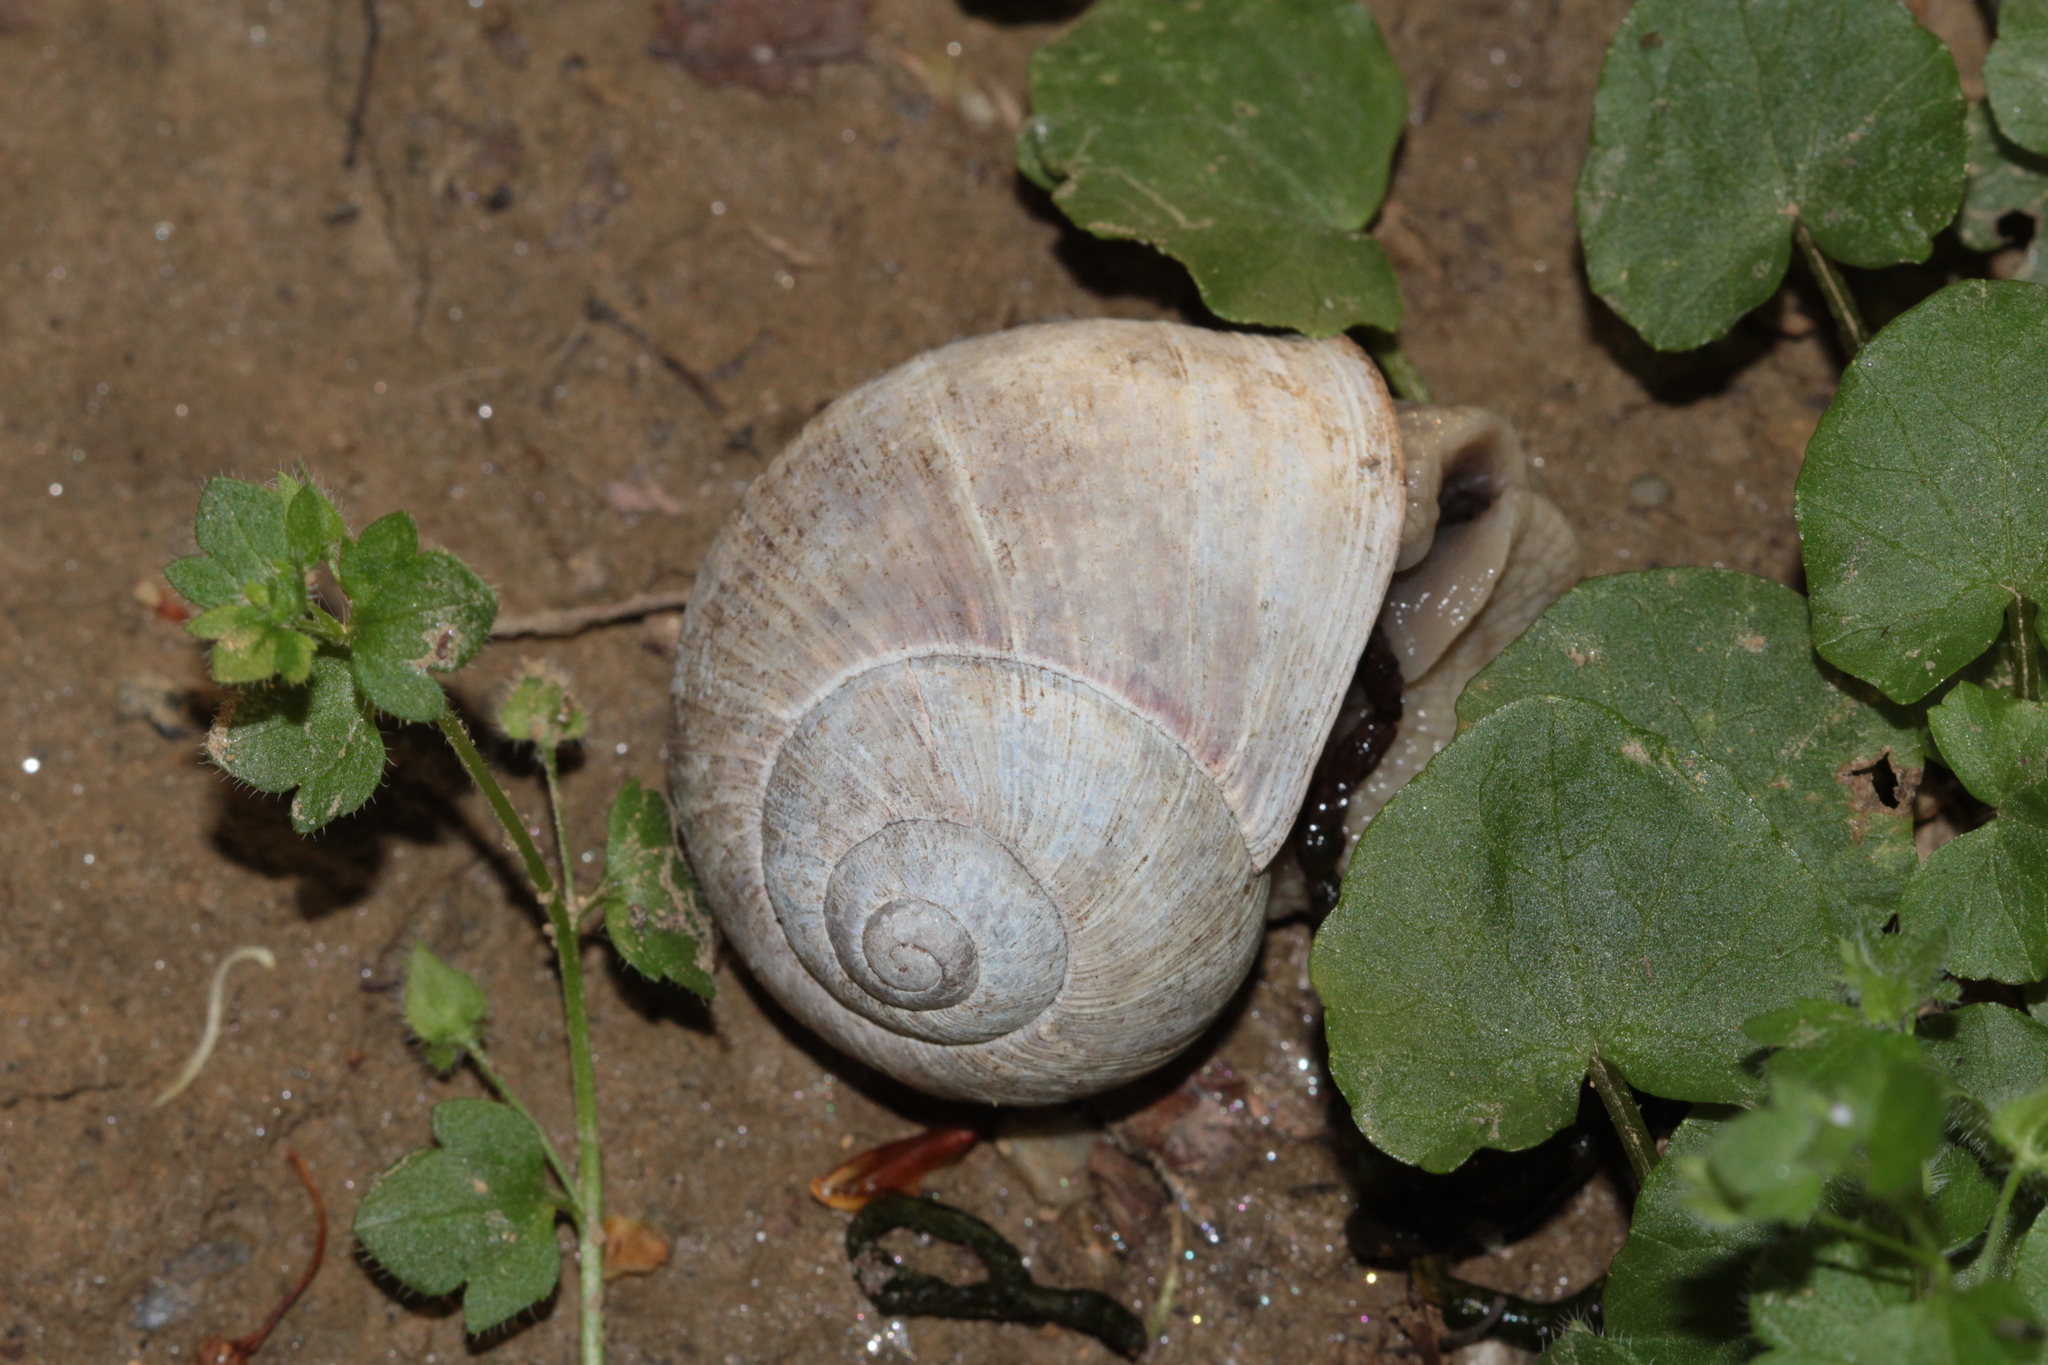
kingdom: Animalia
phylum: Mollusca
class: Gastropoda
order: Stylommatophora
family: Helicidae
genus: Helix
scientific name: Helix pomatia
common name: Roman snail
